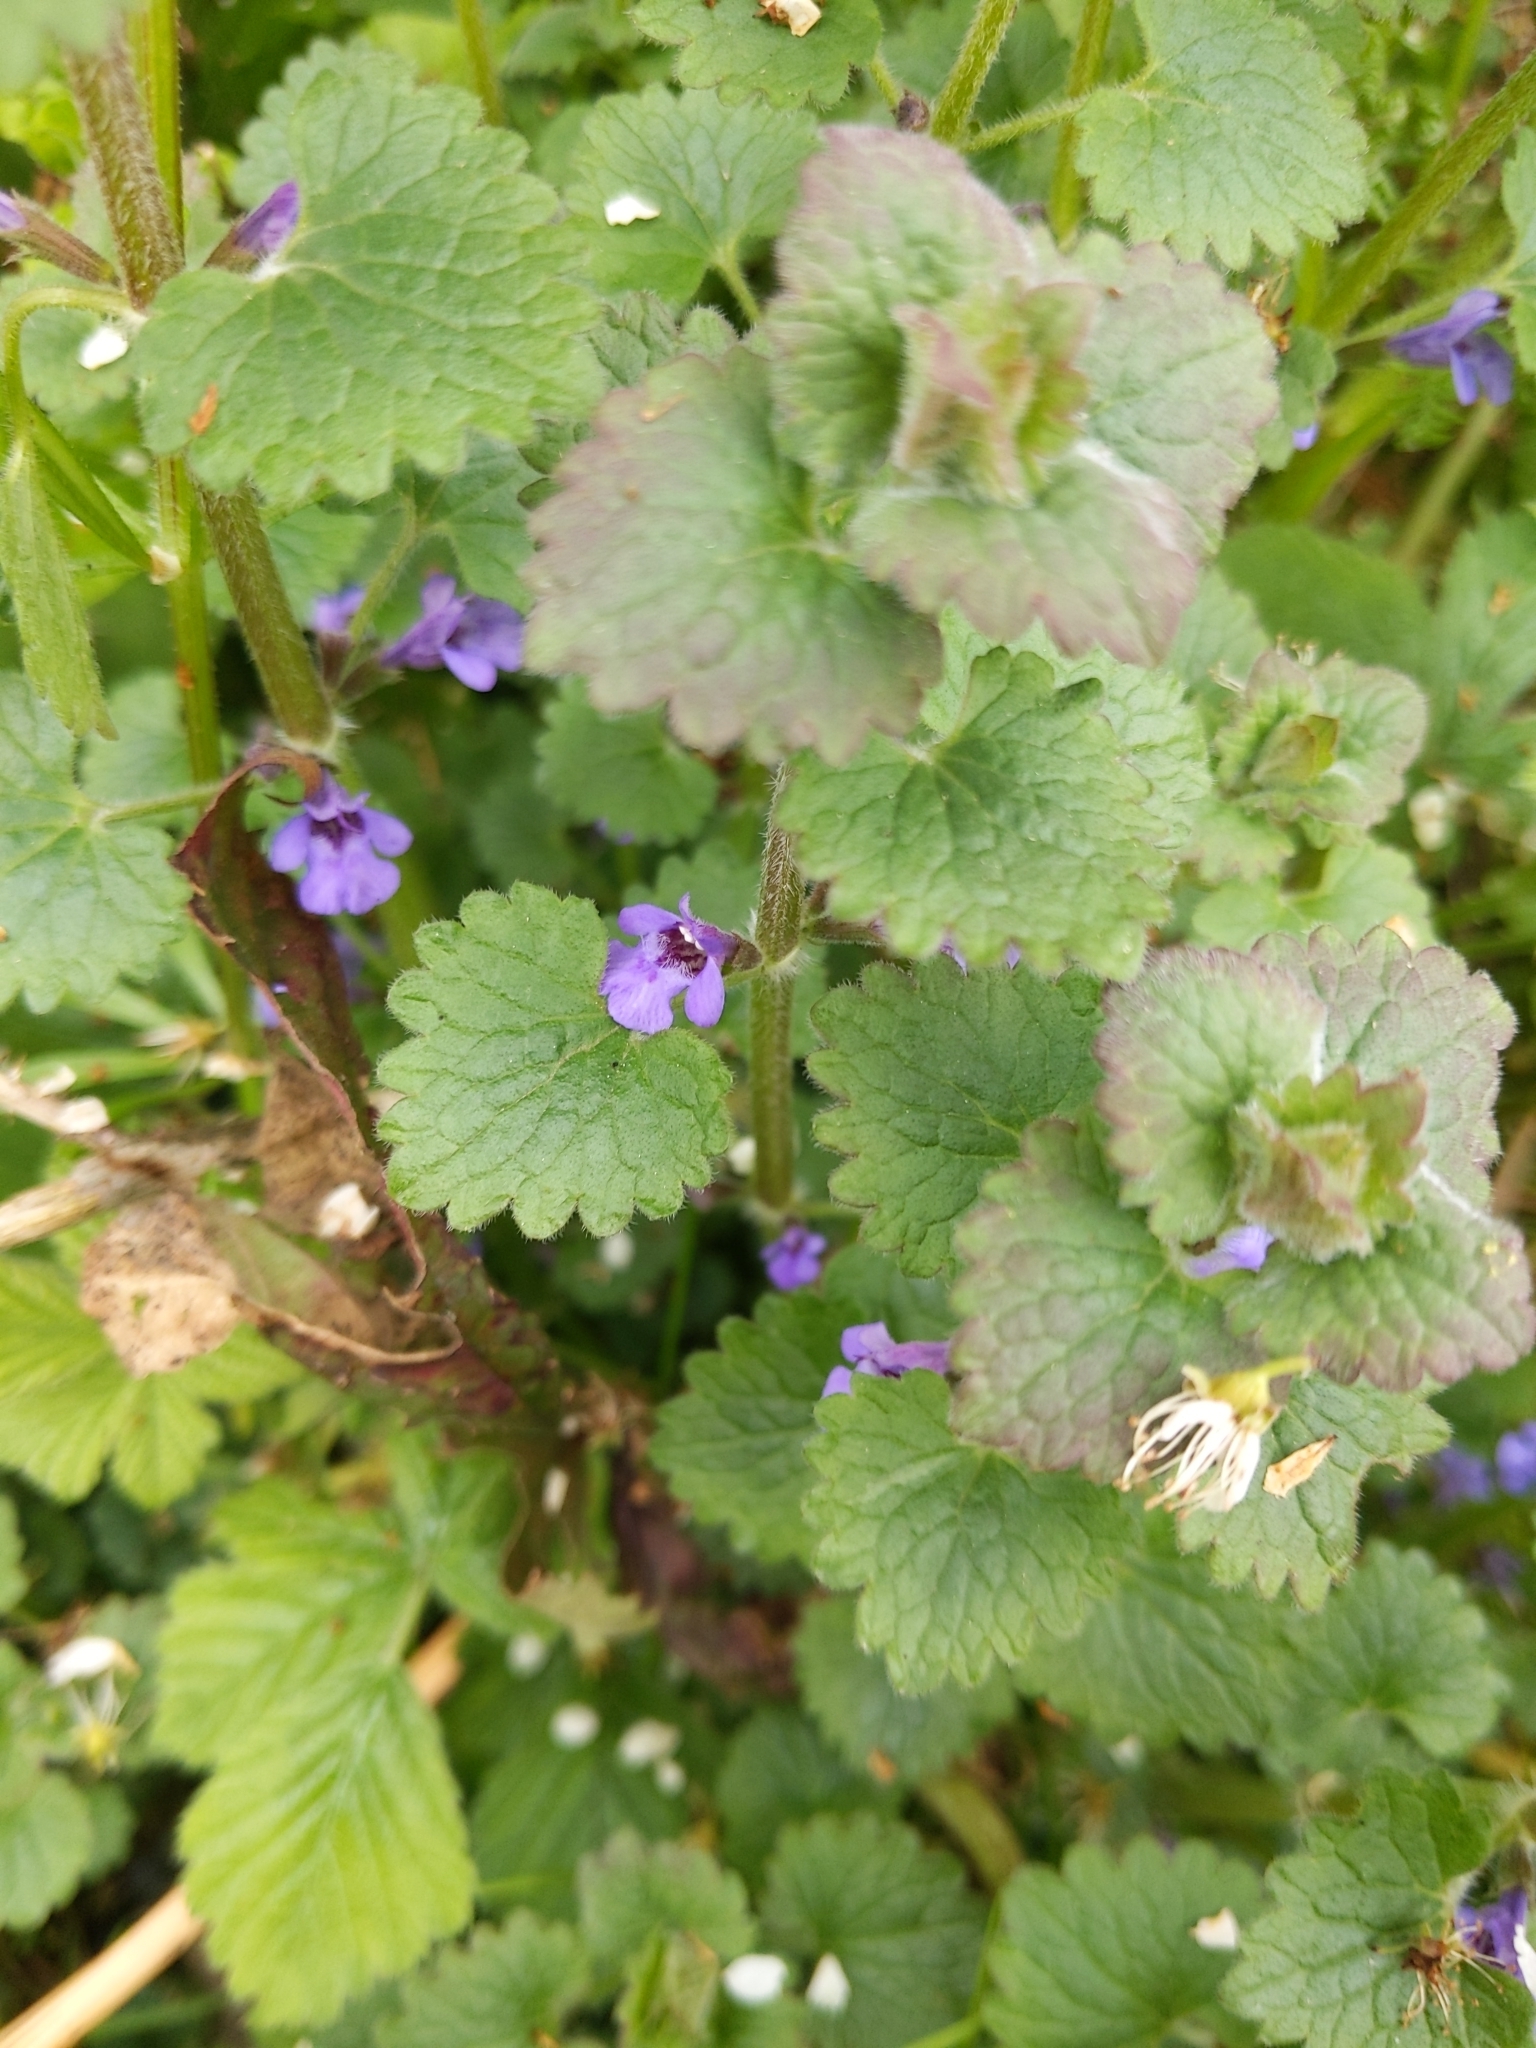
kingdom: Plantae
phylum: Tracheophyta
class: Magnoliopsida
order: Lamiales
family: Lamiaceae
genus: Glechoma
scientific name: Glechoma hederacea
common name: Ground ivy
